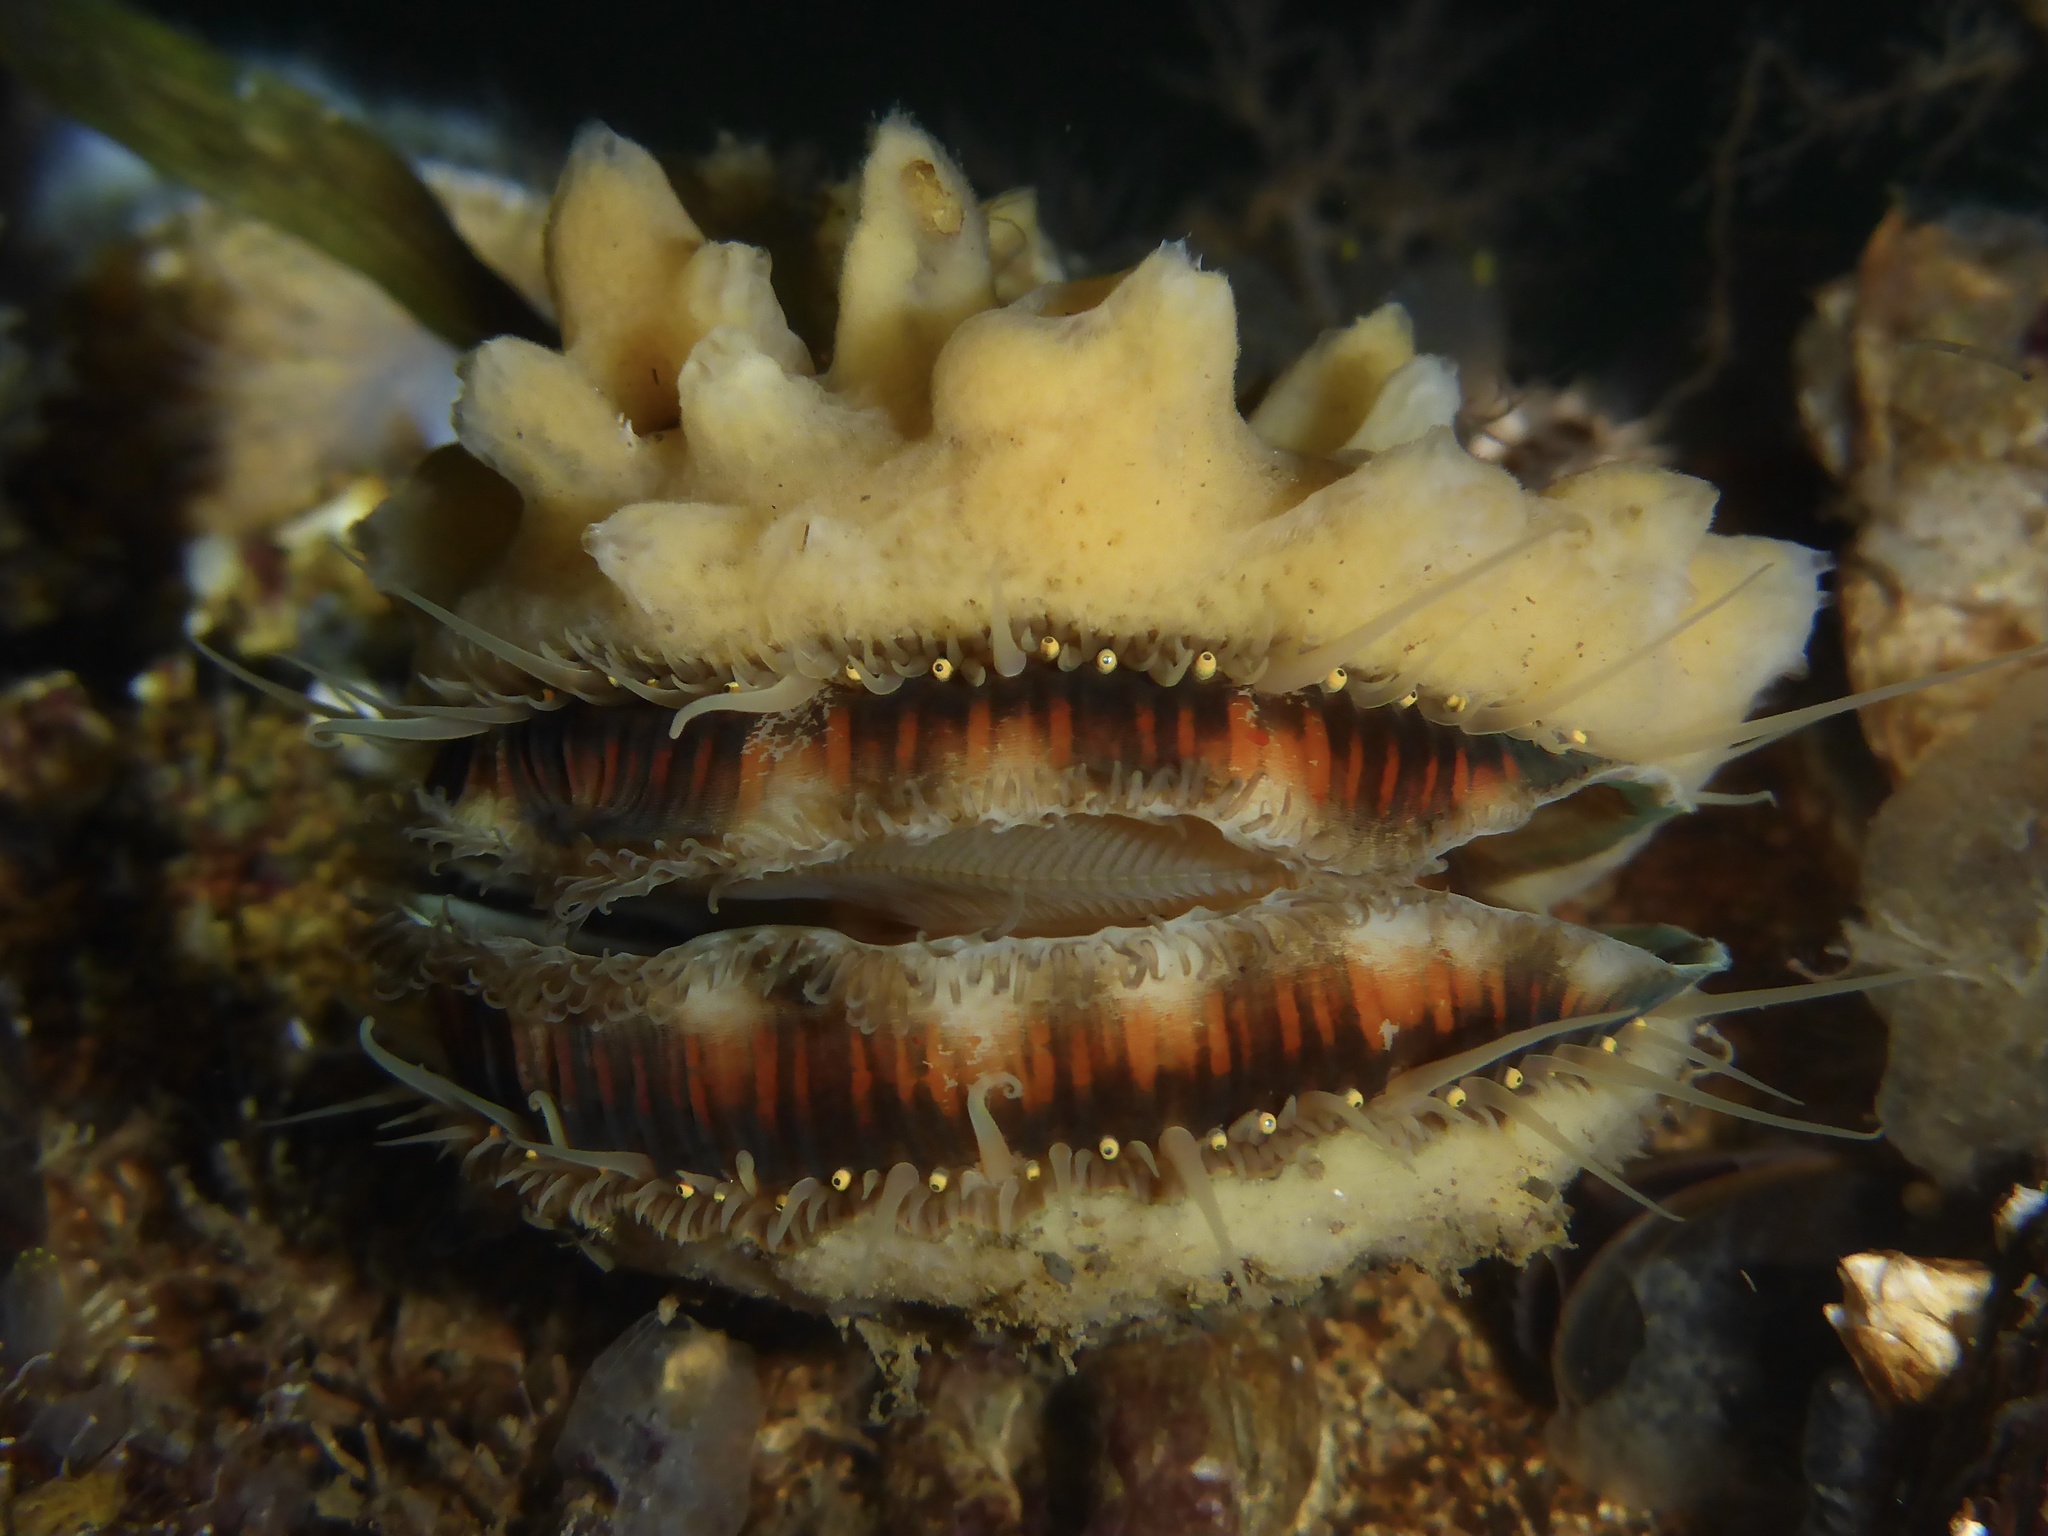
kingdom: Animalia
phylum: Mollusca
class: Bivalvia
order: Pectinida
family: Pectinidae
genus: Chlamys
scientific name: Chlamys hastata
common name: Spear scallop
